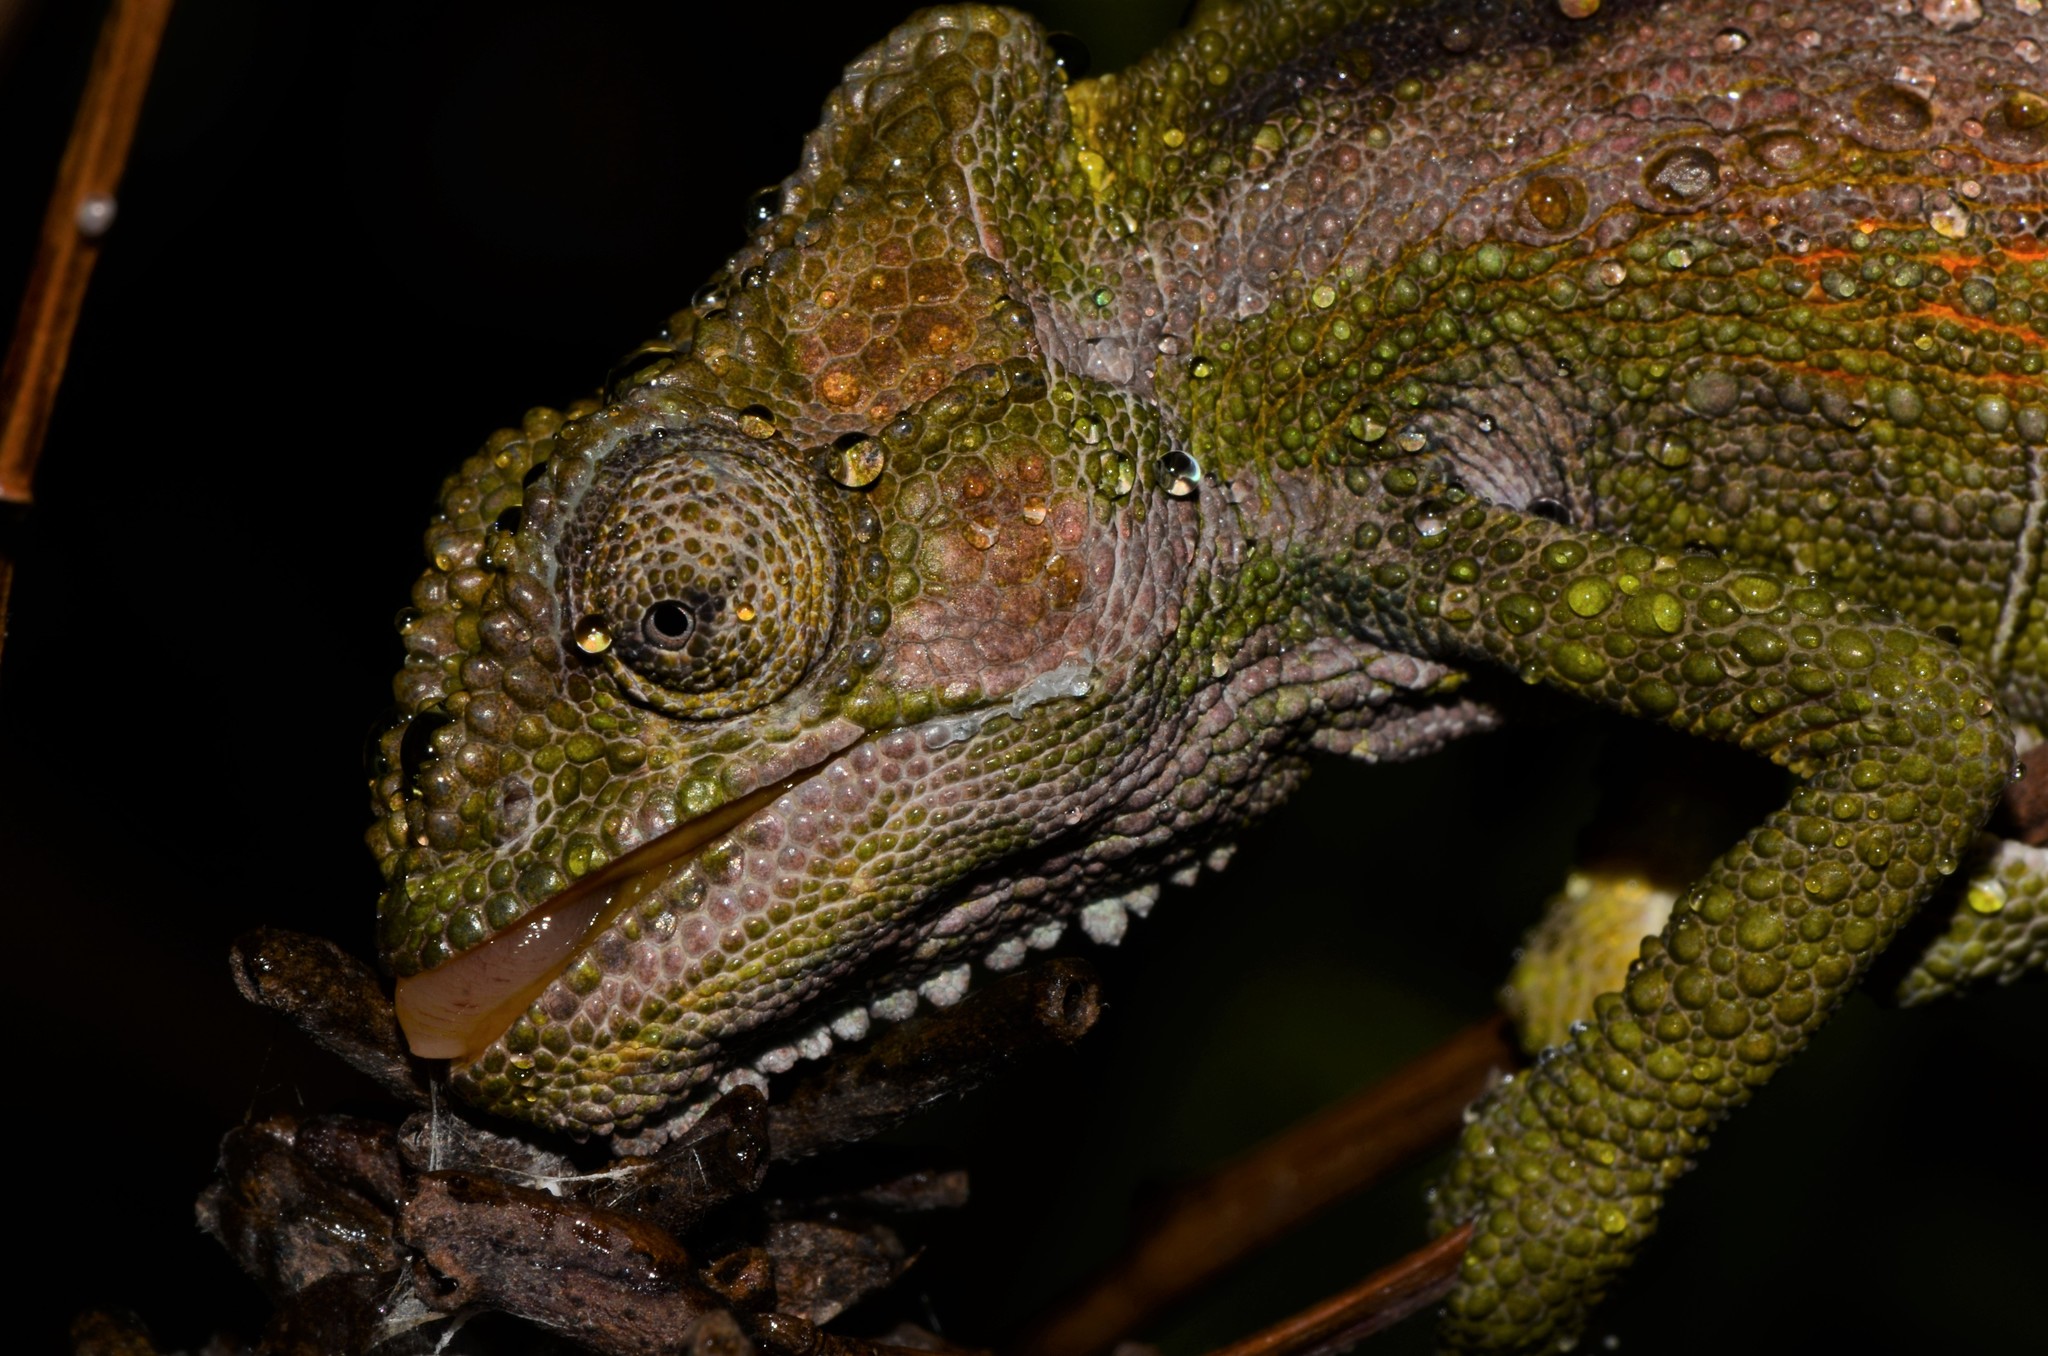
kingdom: Animalia
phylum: Chordata
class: Squamata
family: Chamaeleonidae
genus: Bradypodion
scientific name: Bradypodion pumilum
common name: Cape dwarf chameleon
